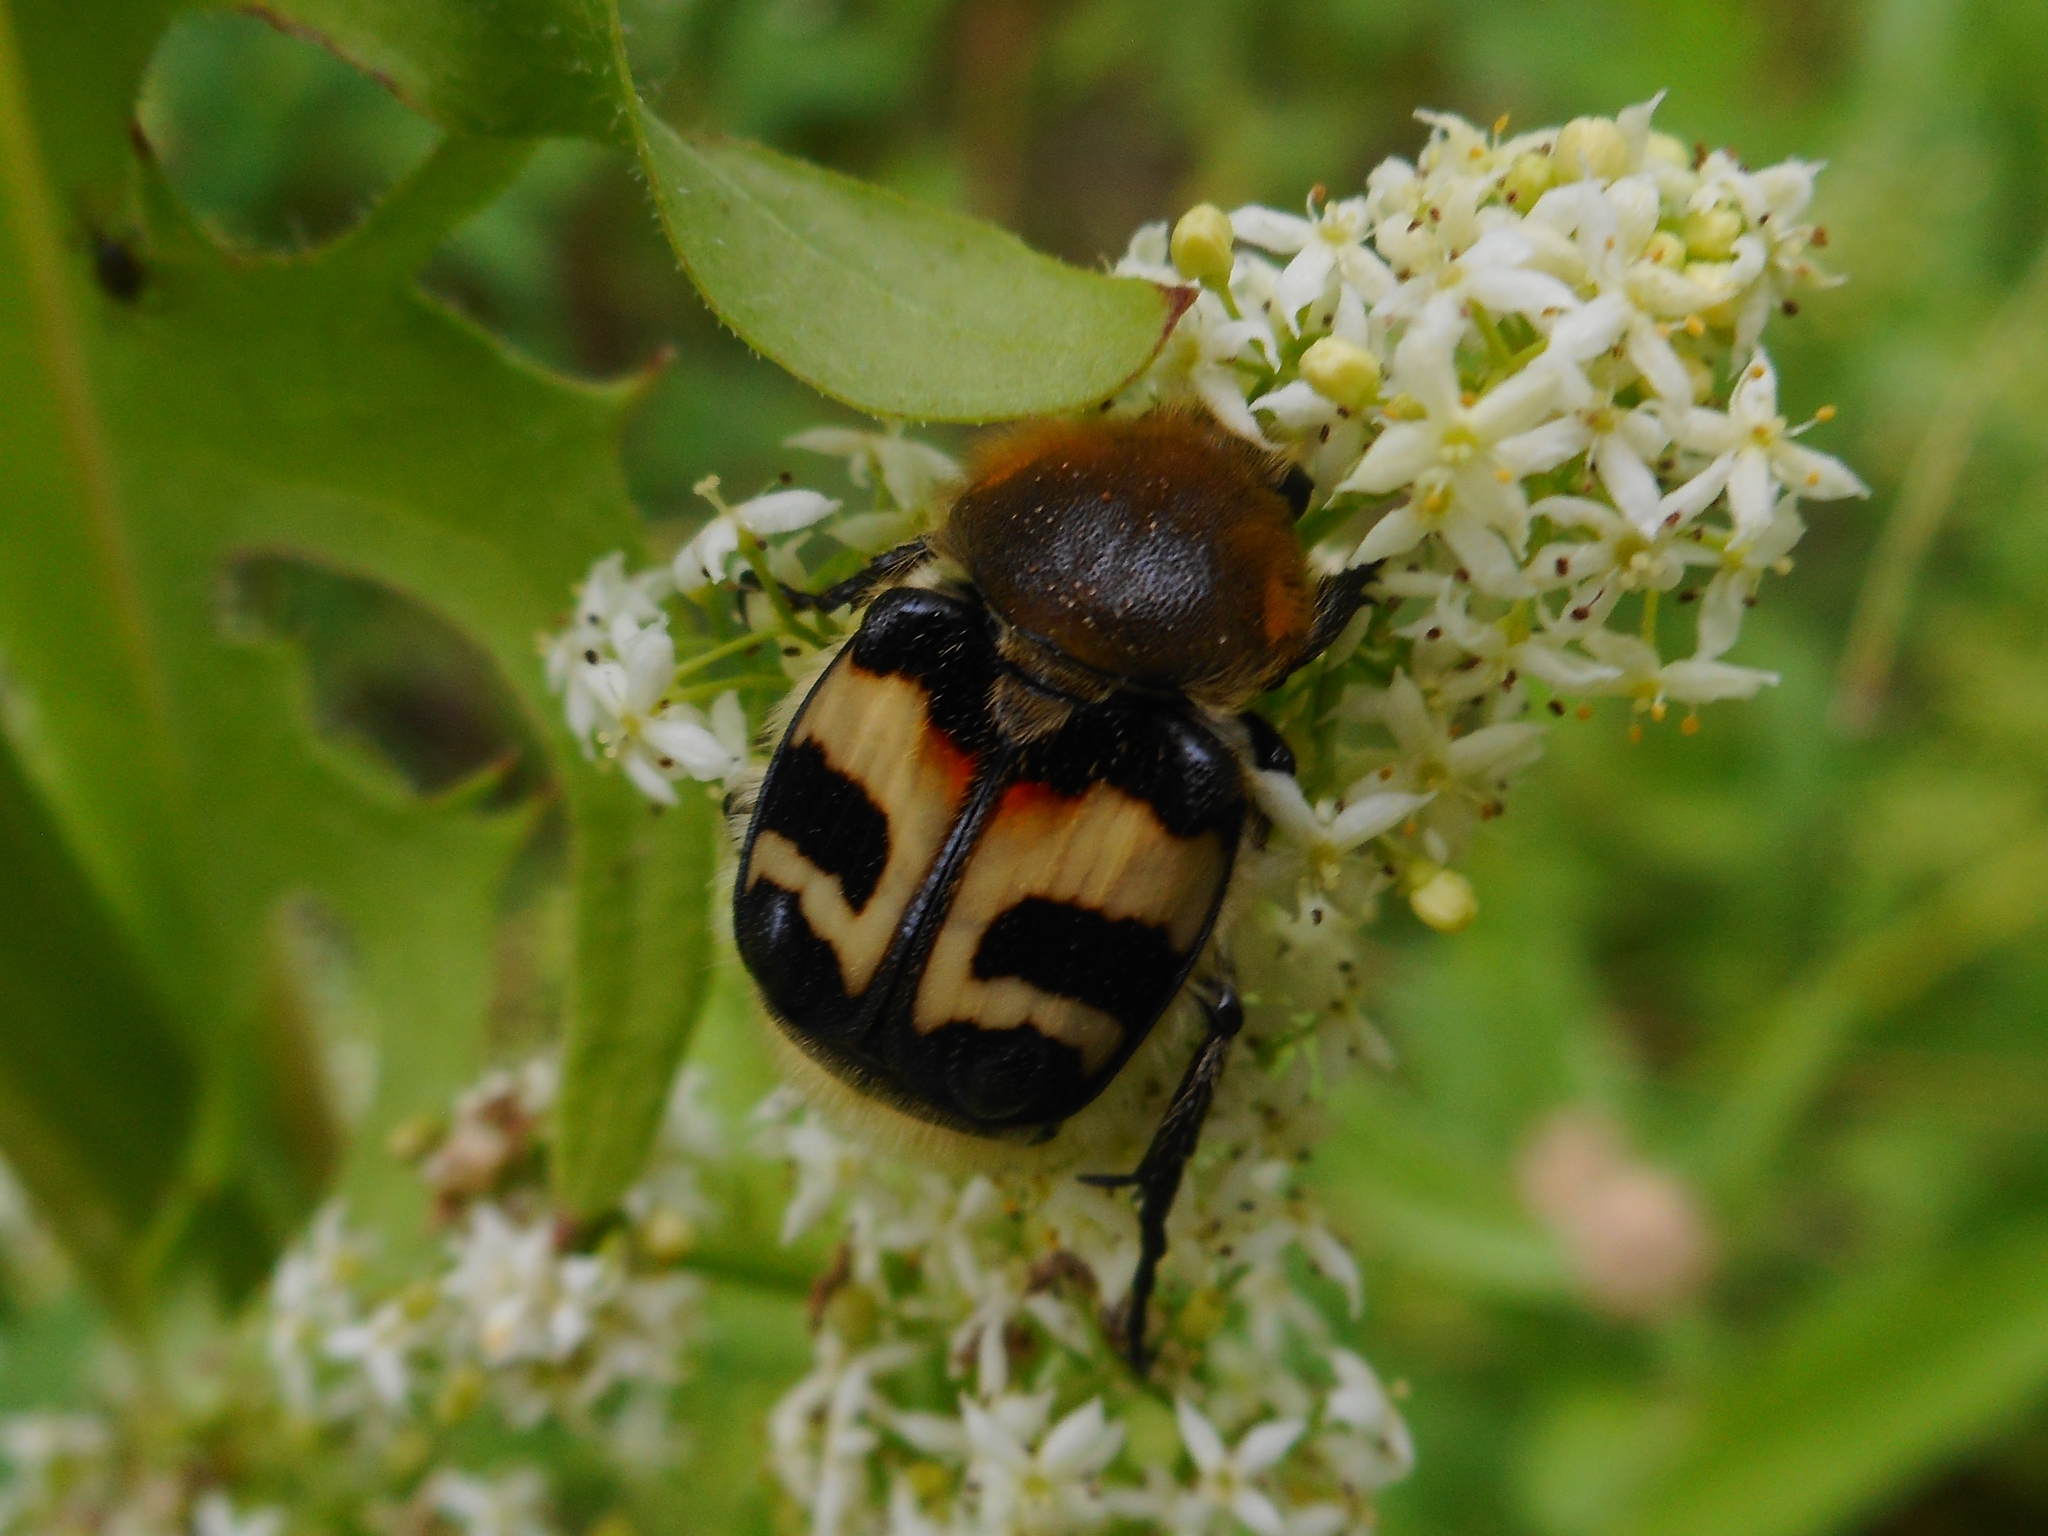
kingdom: Animalia
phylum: Arthropoda
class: Insecta
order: Coleoptera
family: Scarabaeidae
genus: Trichius
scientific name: Trichius fasciatus
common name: Bee beetle
